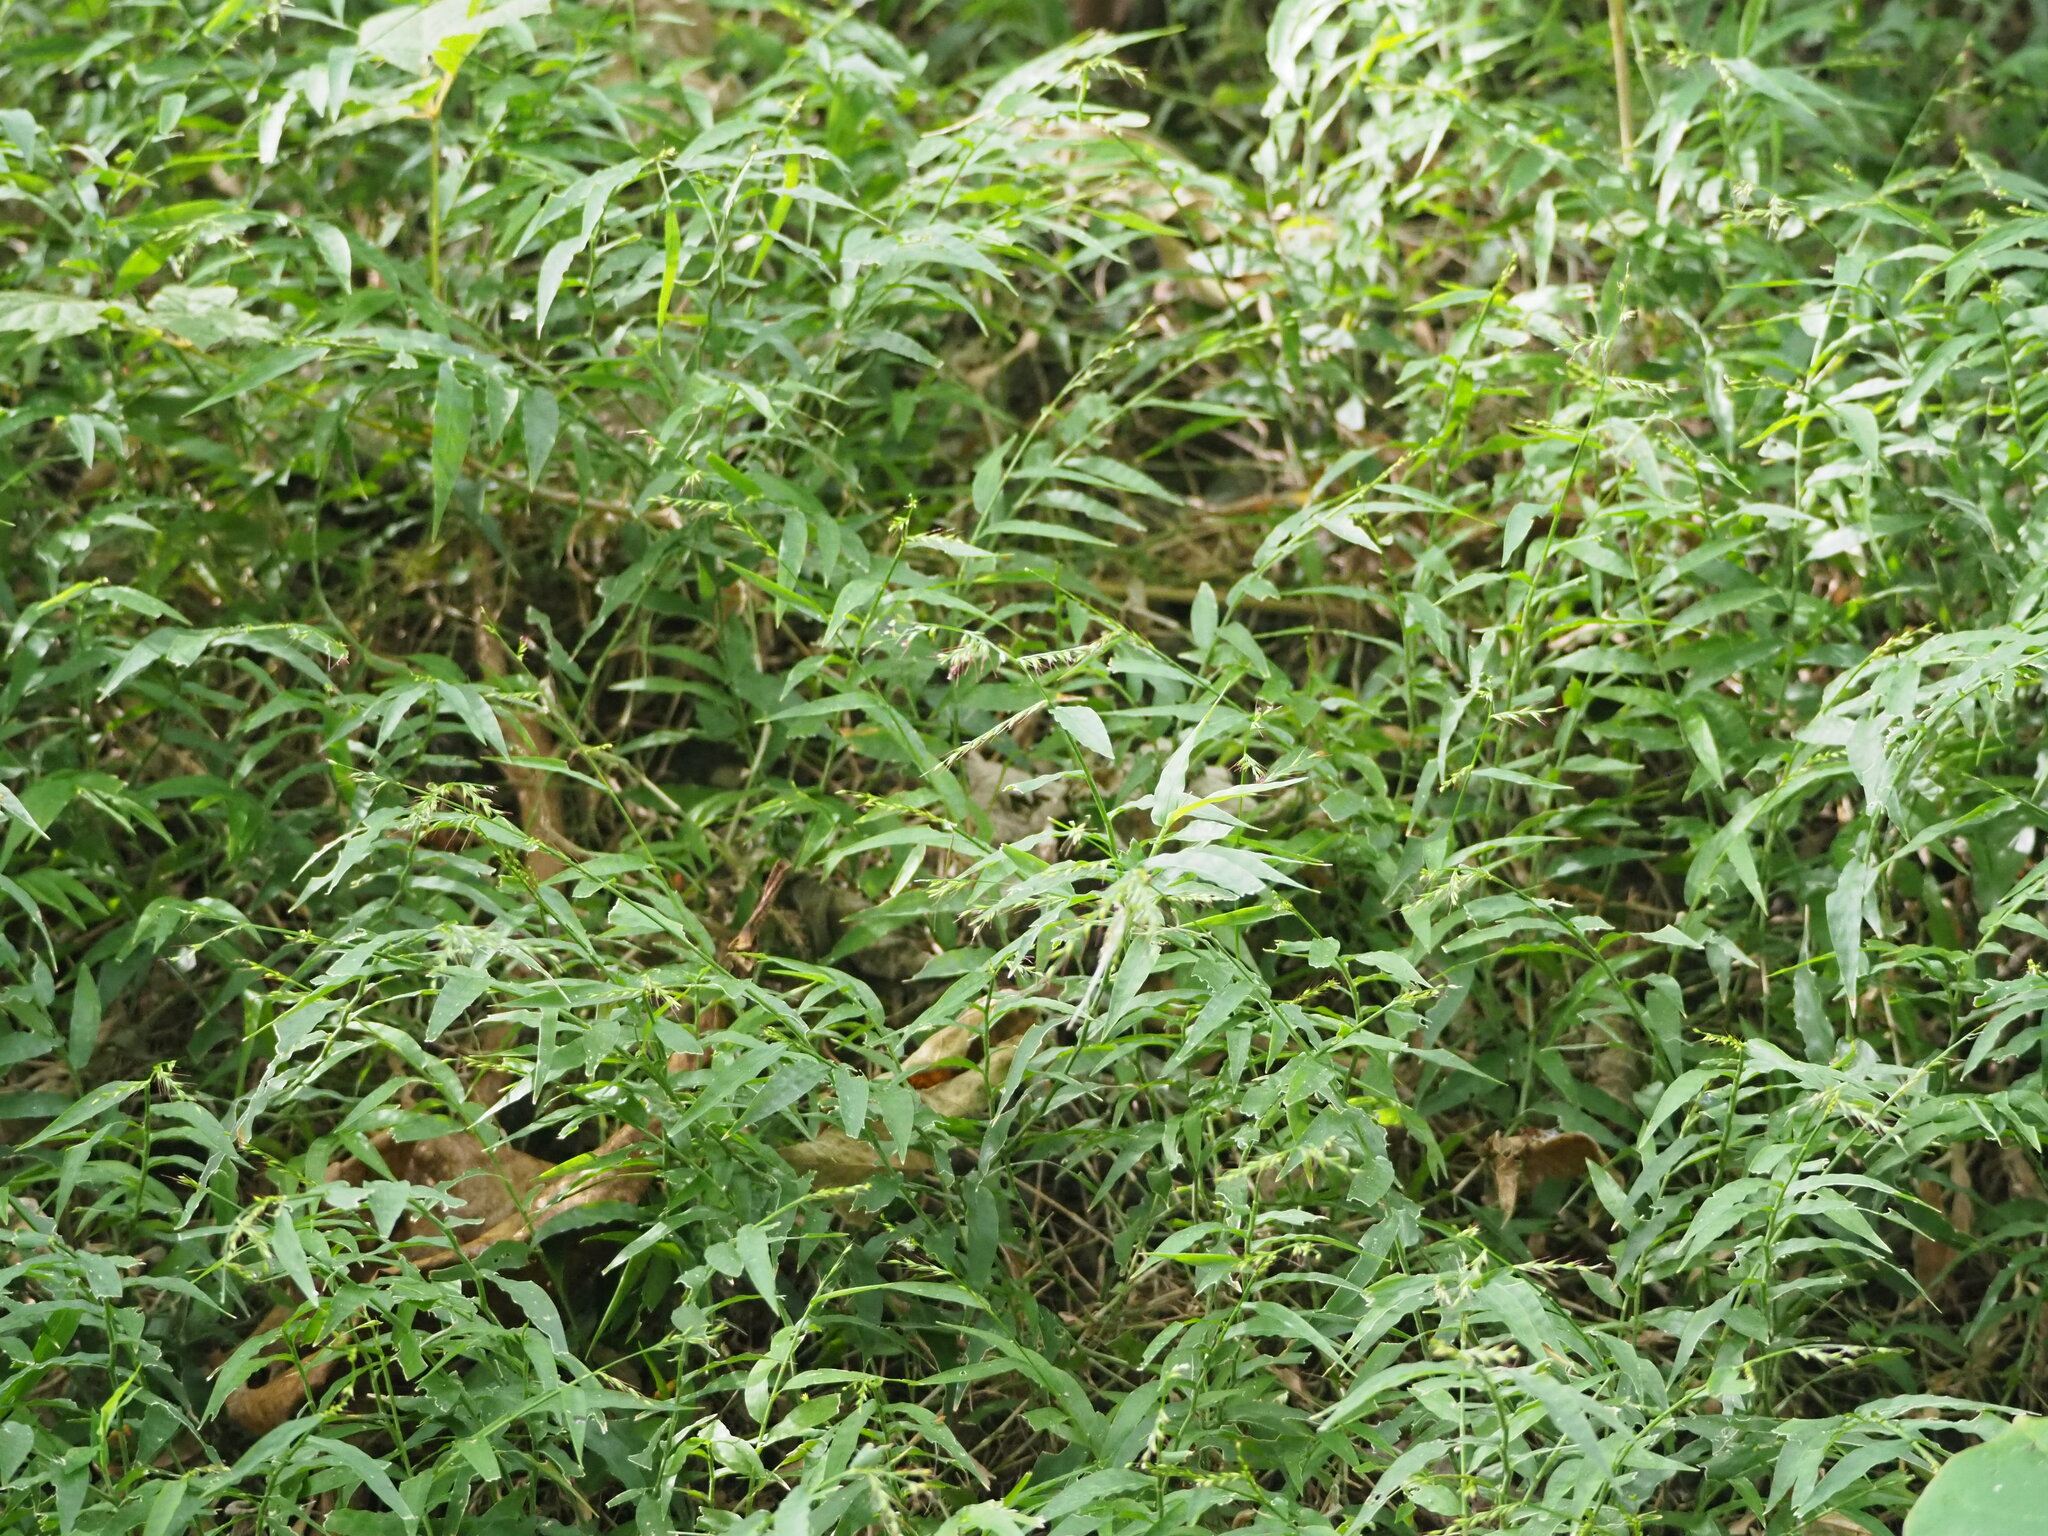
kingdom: Plantae
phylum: Tracheophyta
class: Liliopsida
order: Poales
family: Poaceae
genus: Oplismenus
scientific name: Oplismenus compositus
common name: Running mountain grass
